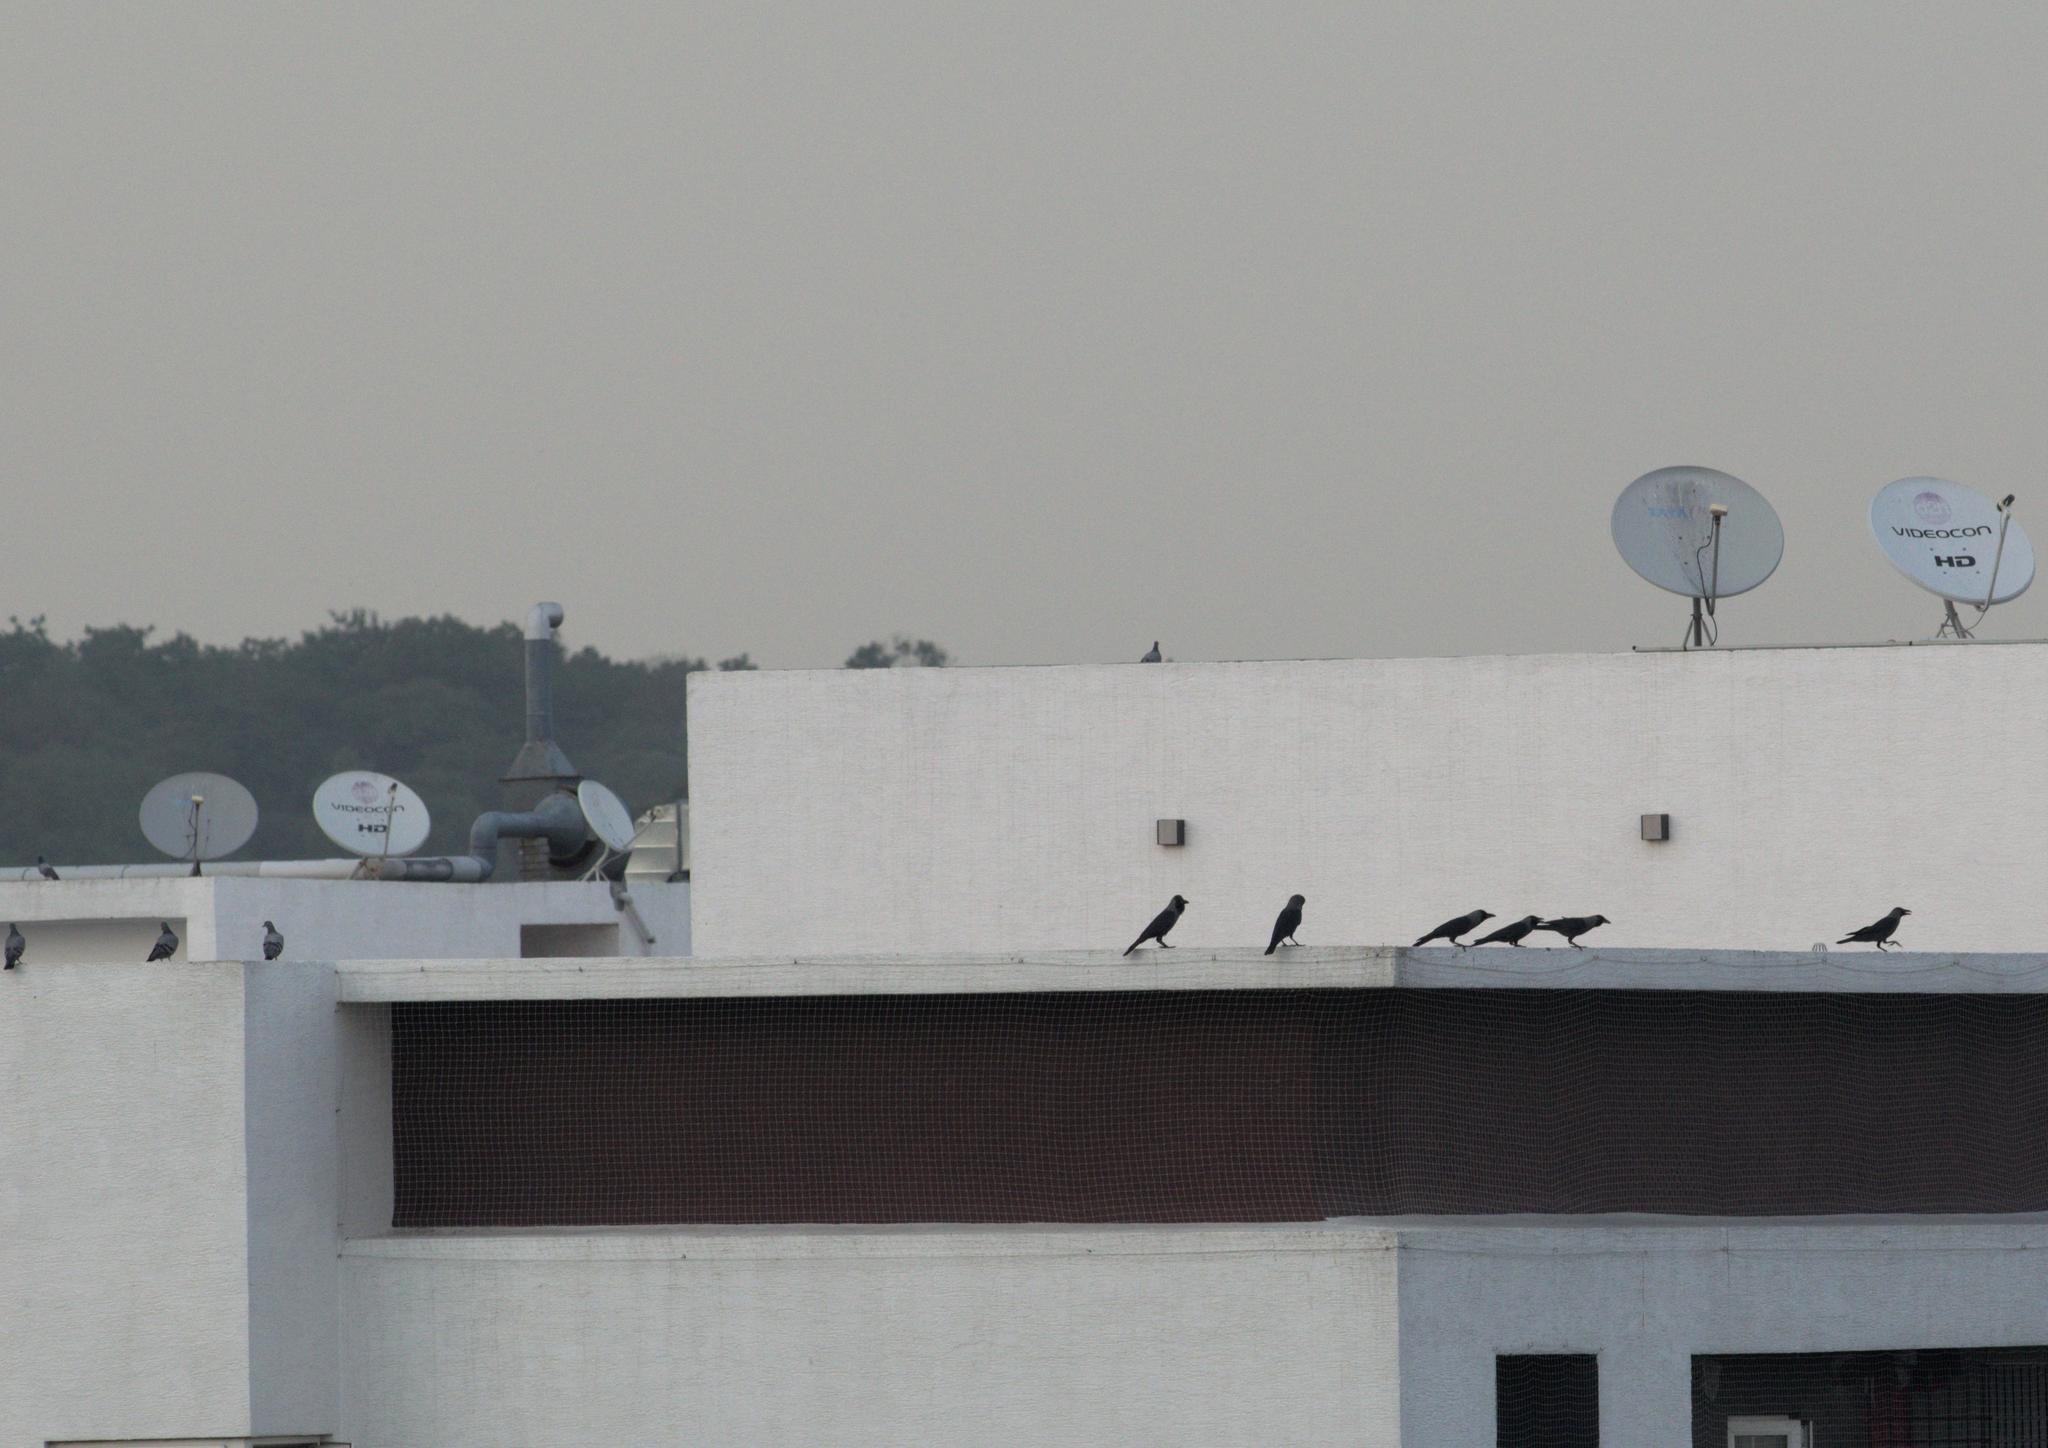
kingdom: Animalia
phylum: Chordata
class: Aves
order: Passeriformes
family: Corvidae
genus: Corvus
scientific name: Corvus splendens
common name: House crow
